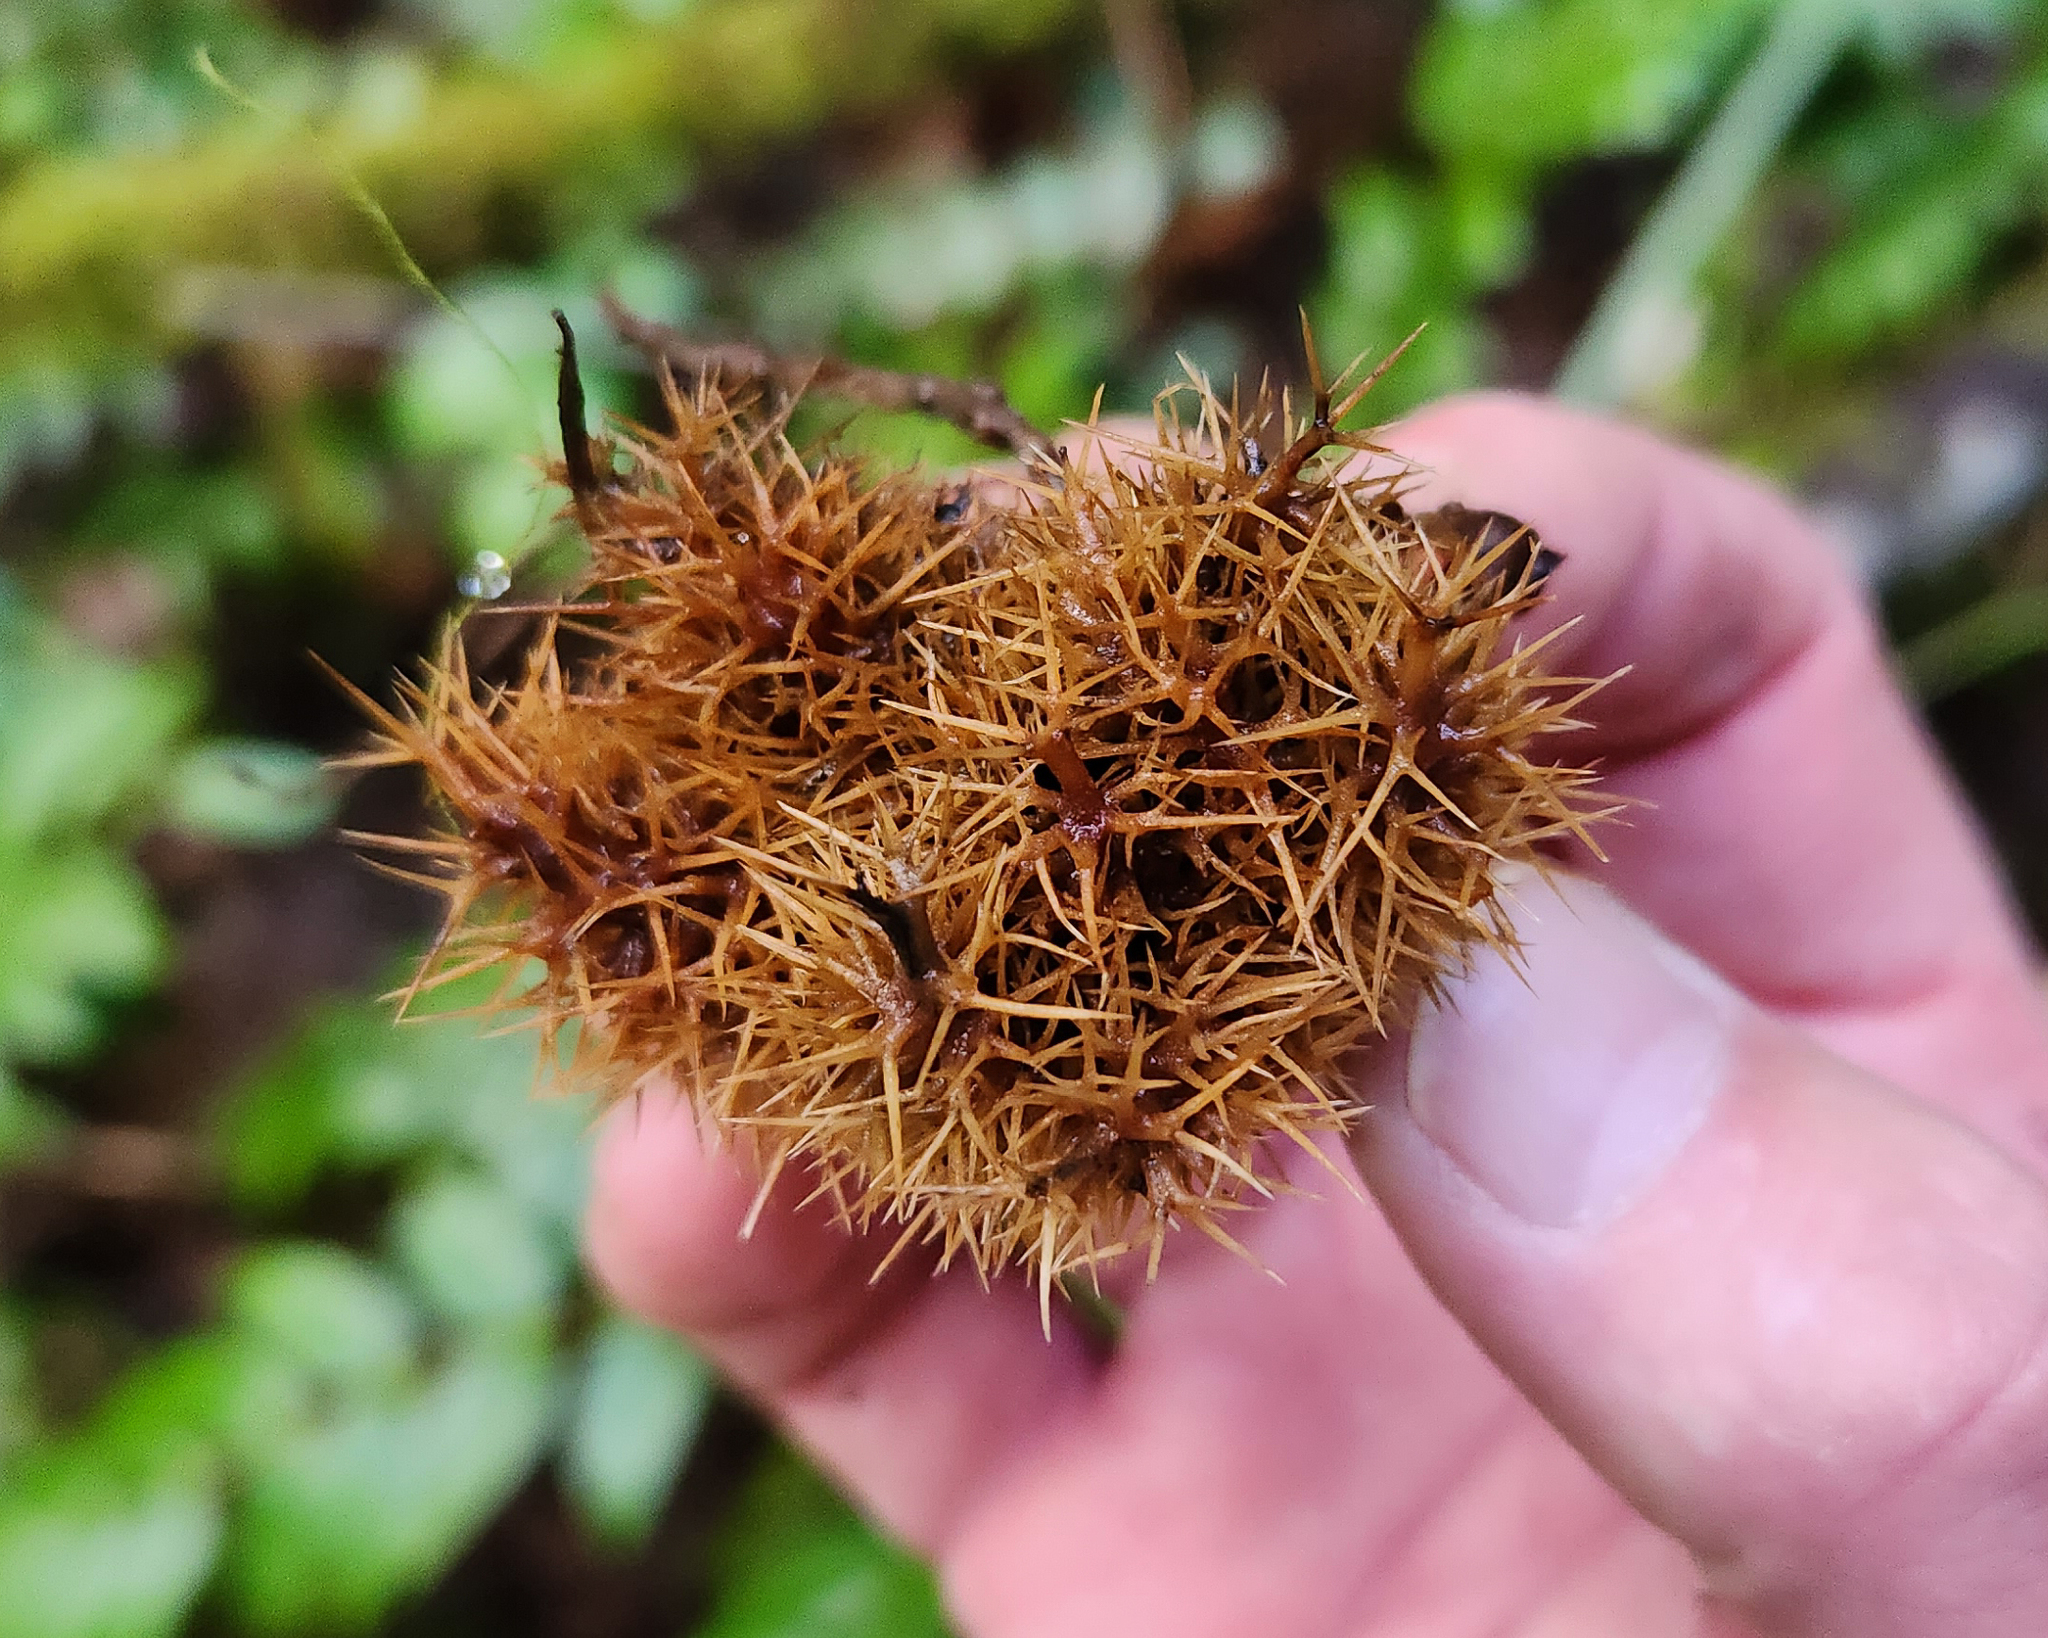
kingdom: Plantae
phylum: Tracheophyta
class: Magnoliopsida
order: Fagales
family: Fagaceae
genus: Chrysolepis
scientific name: Chrysolepis chrysophylla
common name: Giant chinquapin
